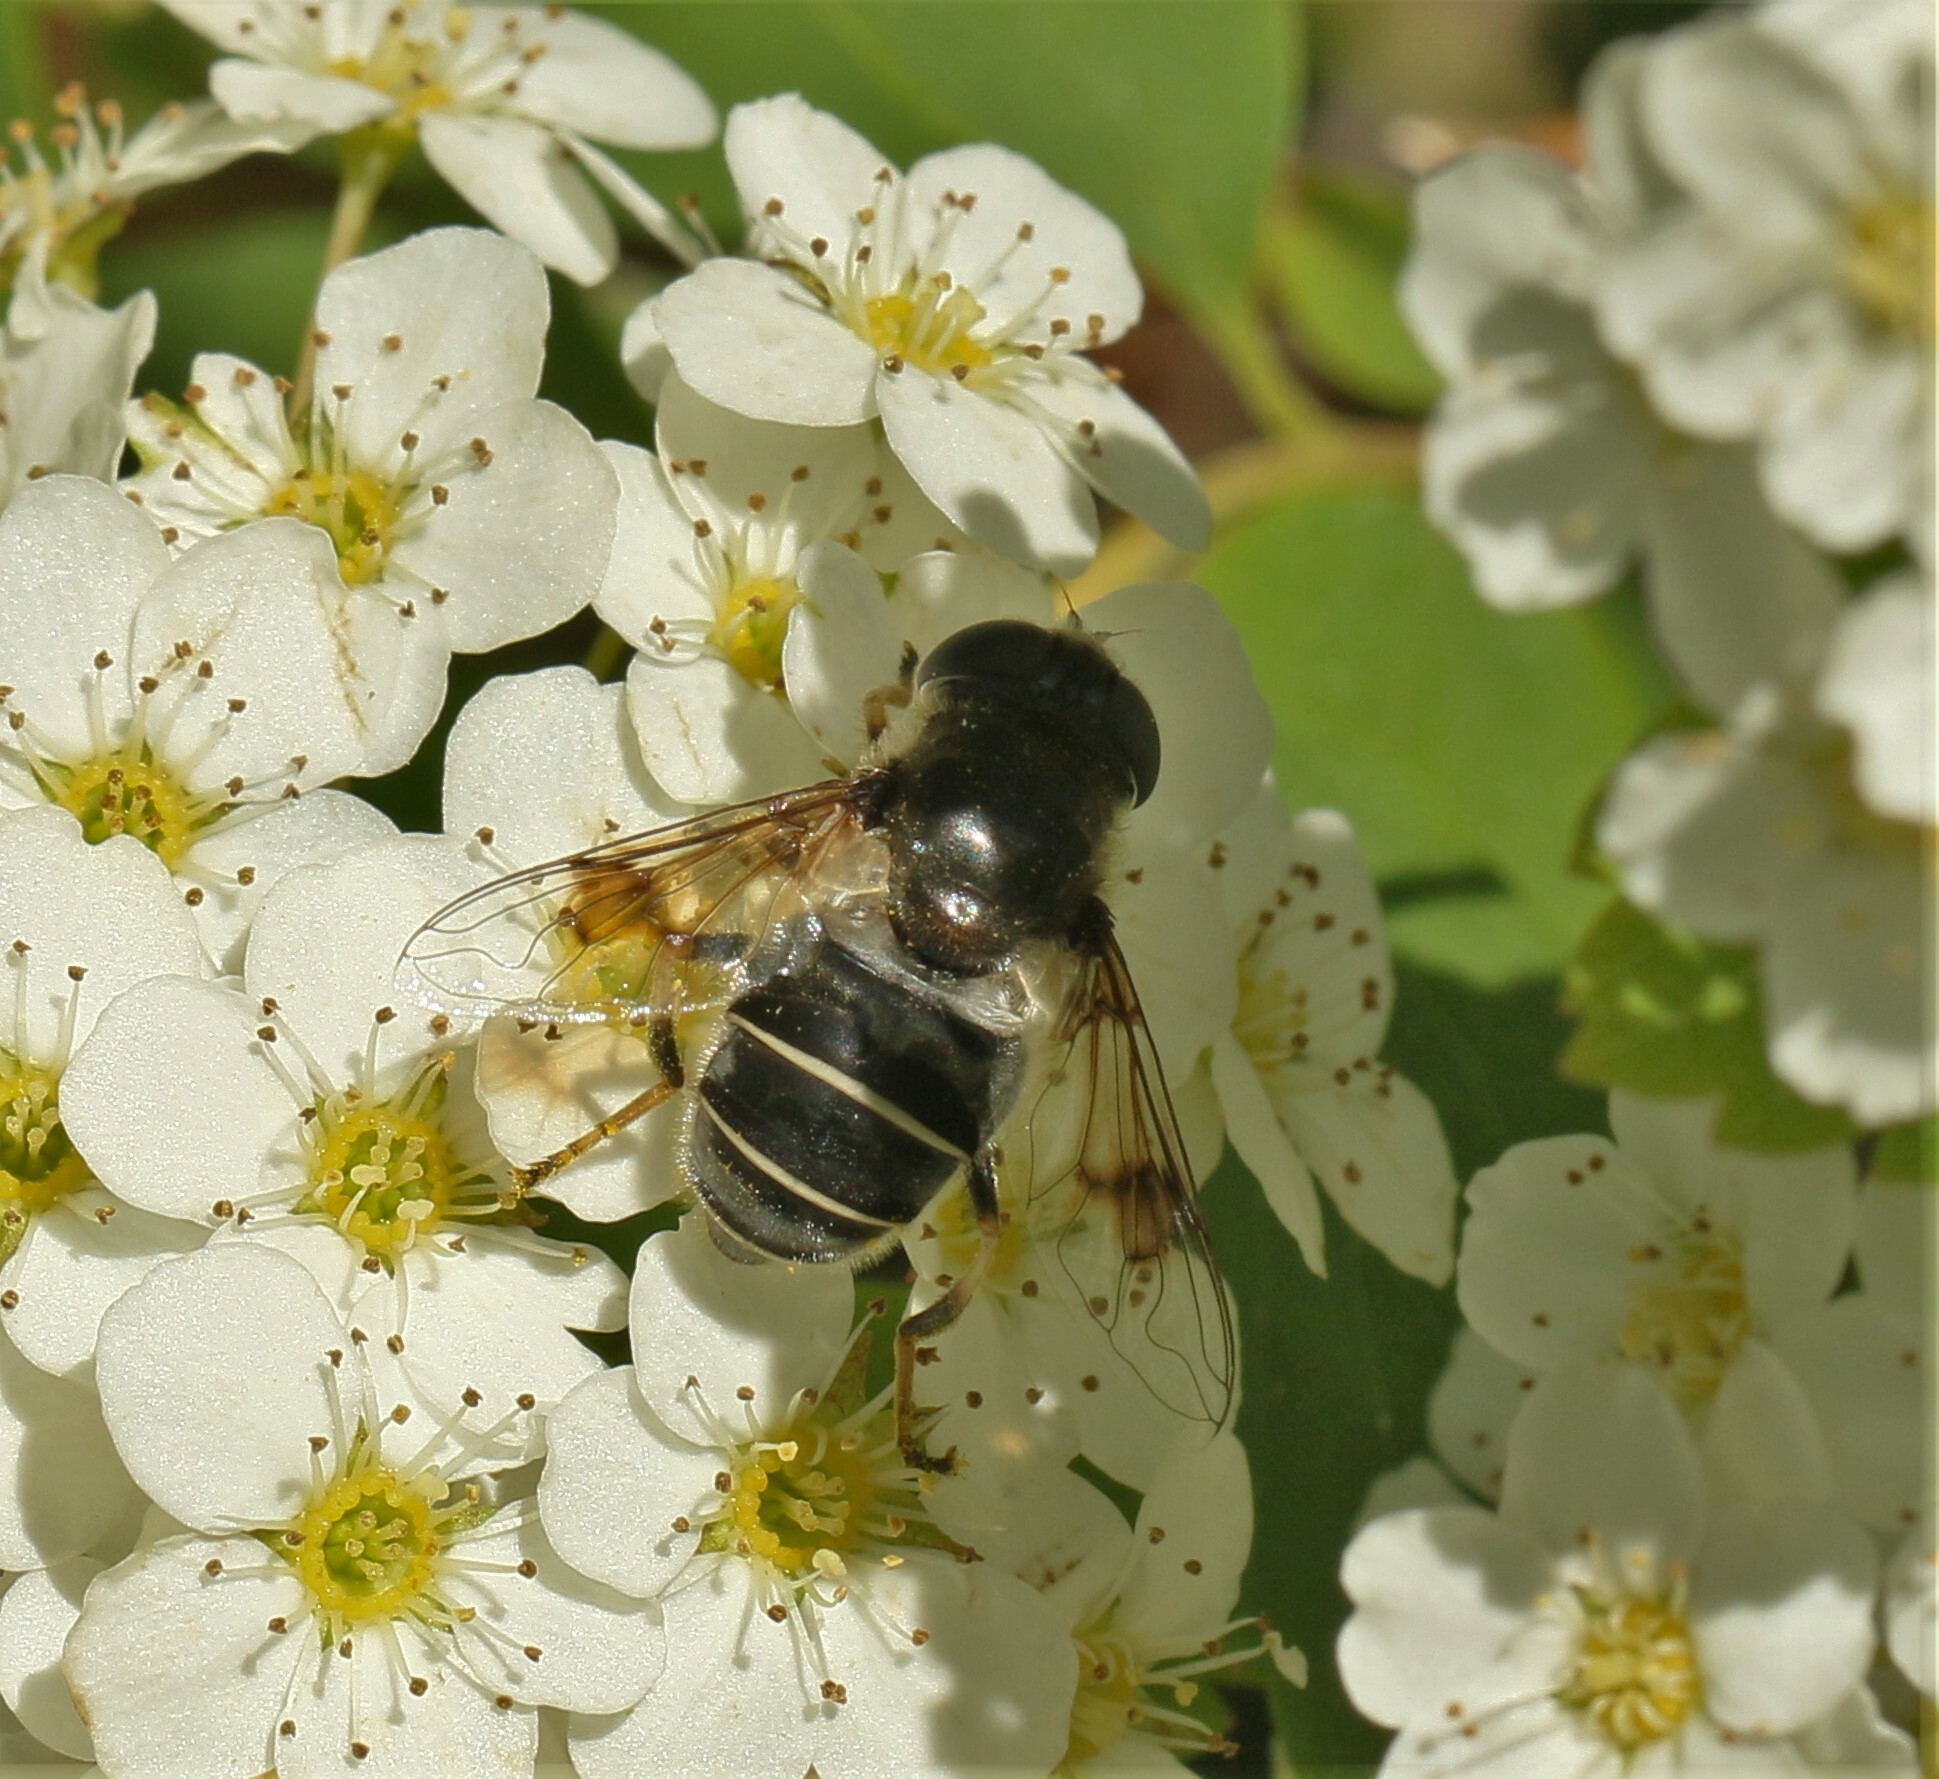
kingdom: Animalia
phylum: Arthropoda
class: Insecta
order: Diptera
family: Syrphidae
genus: Eristalis
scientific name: Eristalis obscura
